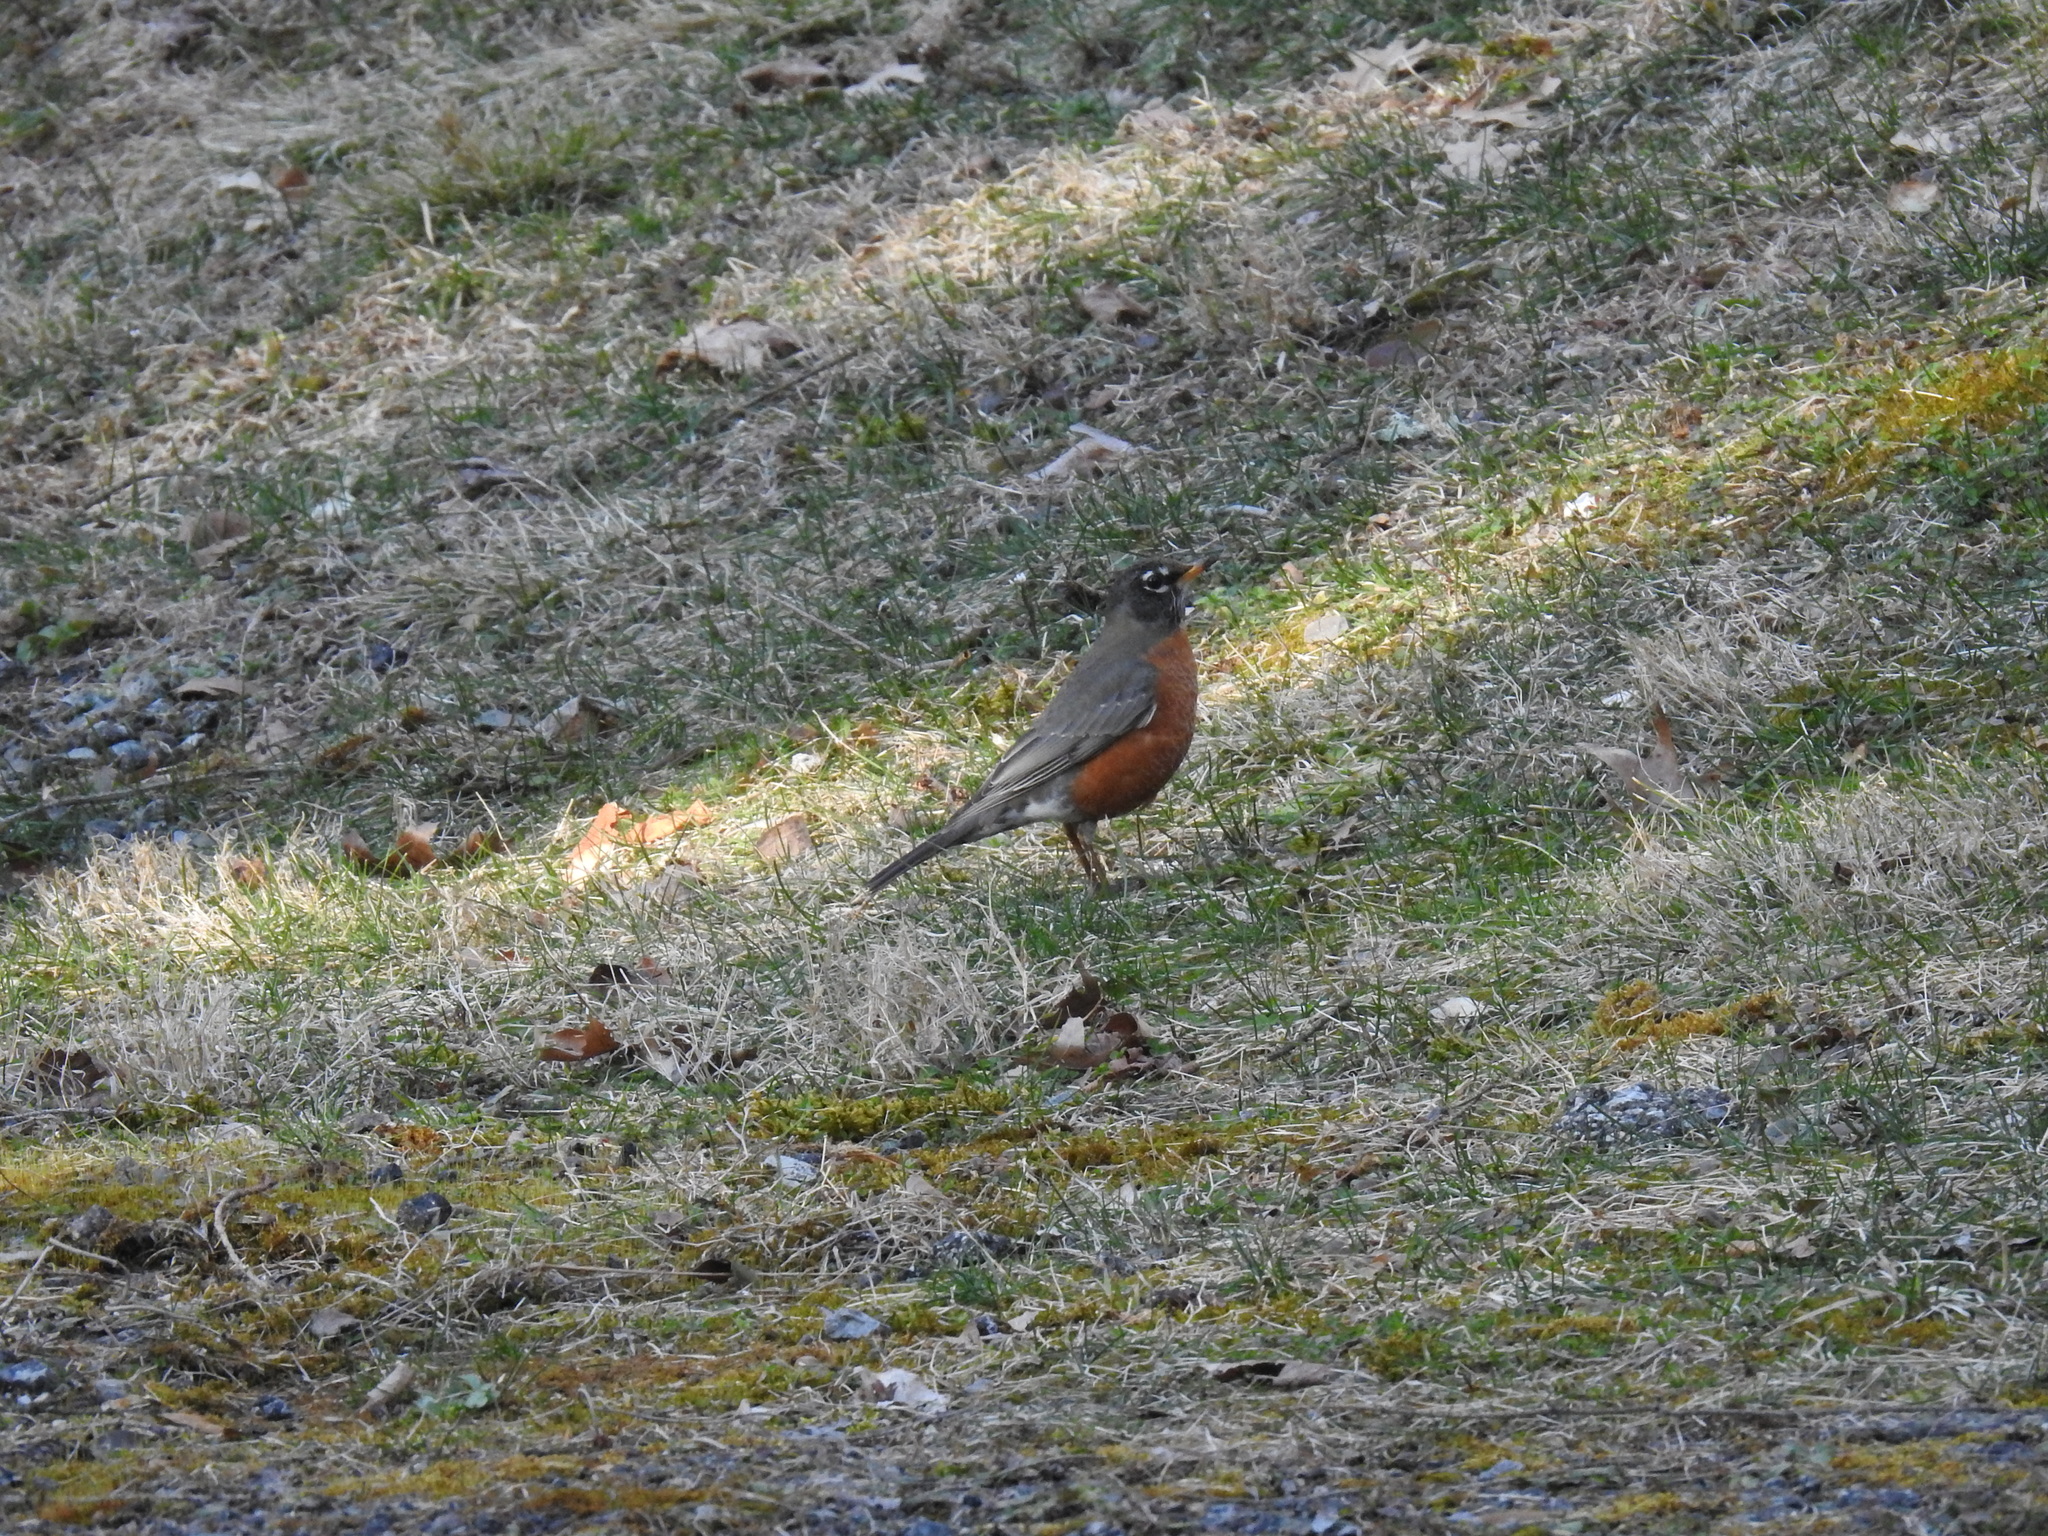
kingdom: Animalia
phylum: Chordata
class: Aves
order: Passeriformes
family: Turdidae
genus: Turdus
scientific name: Turdus migratorius
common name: American robin
